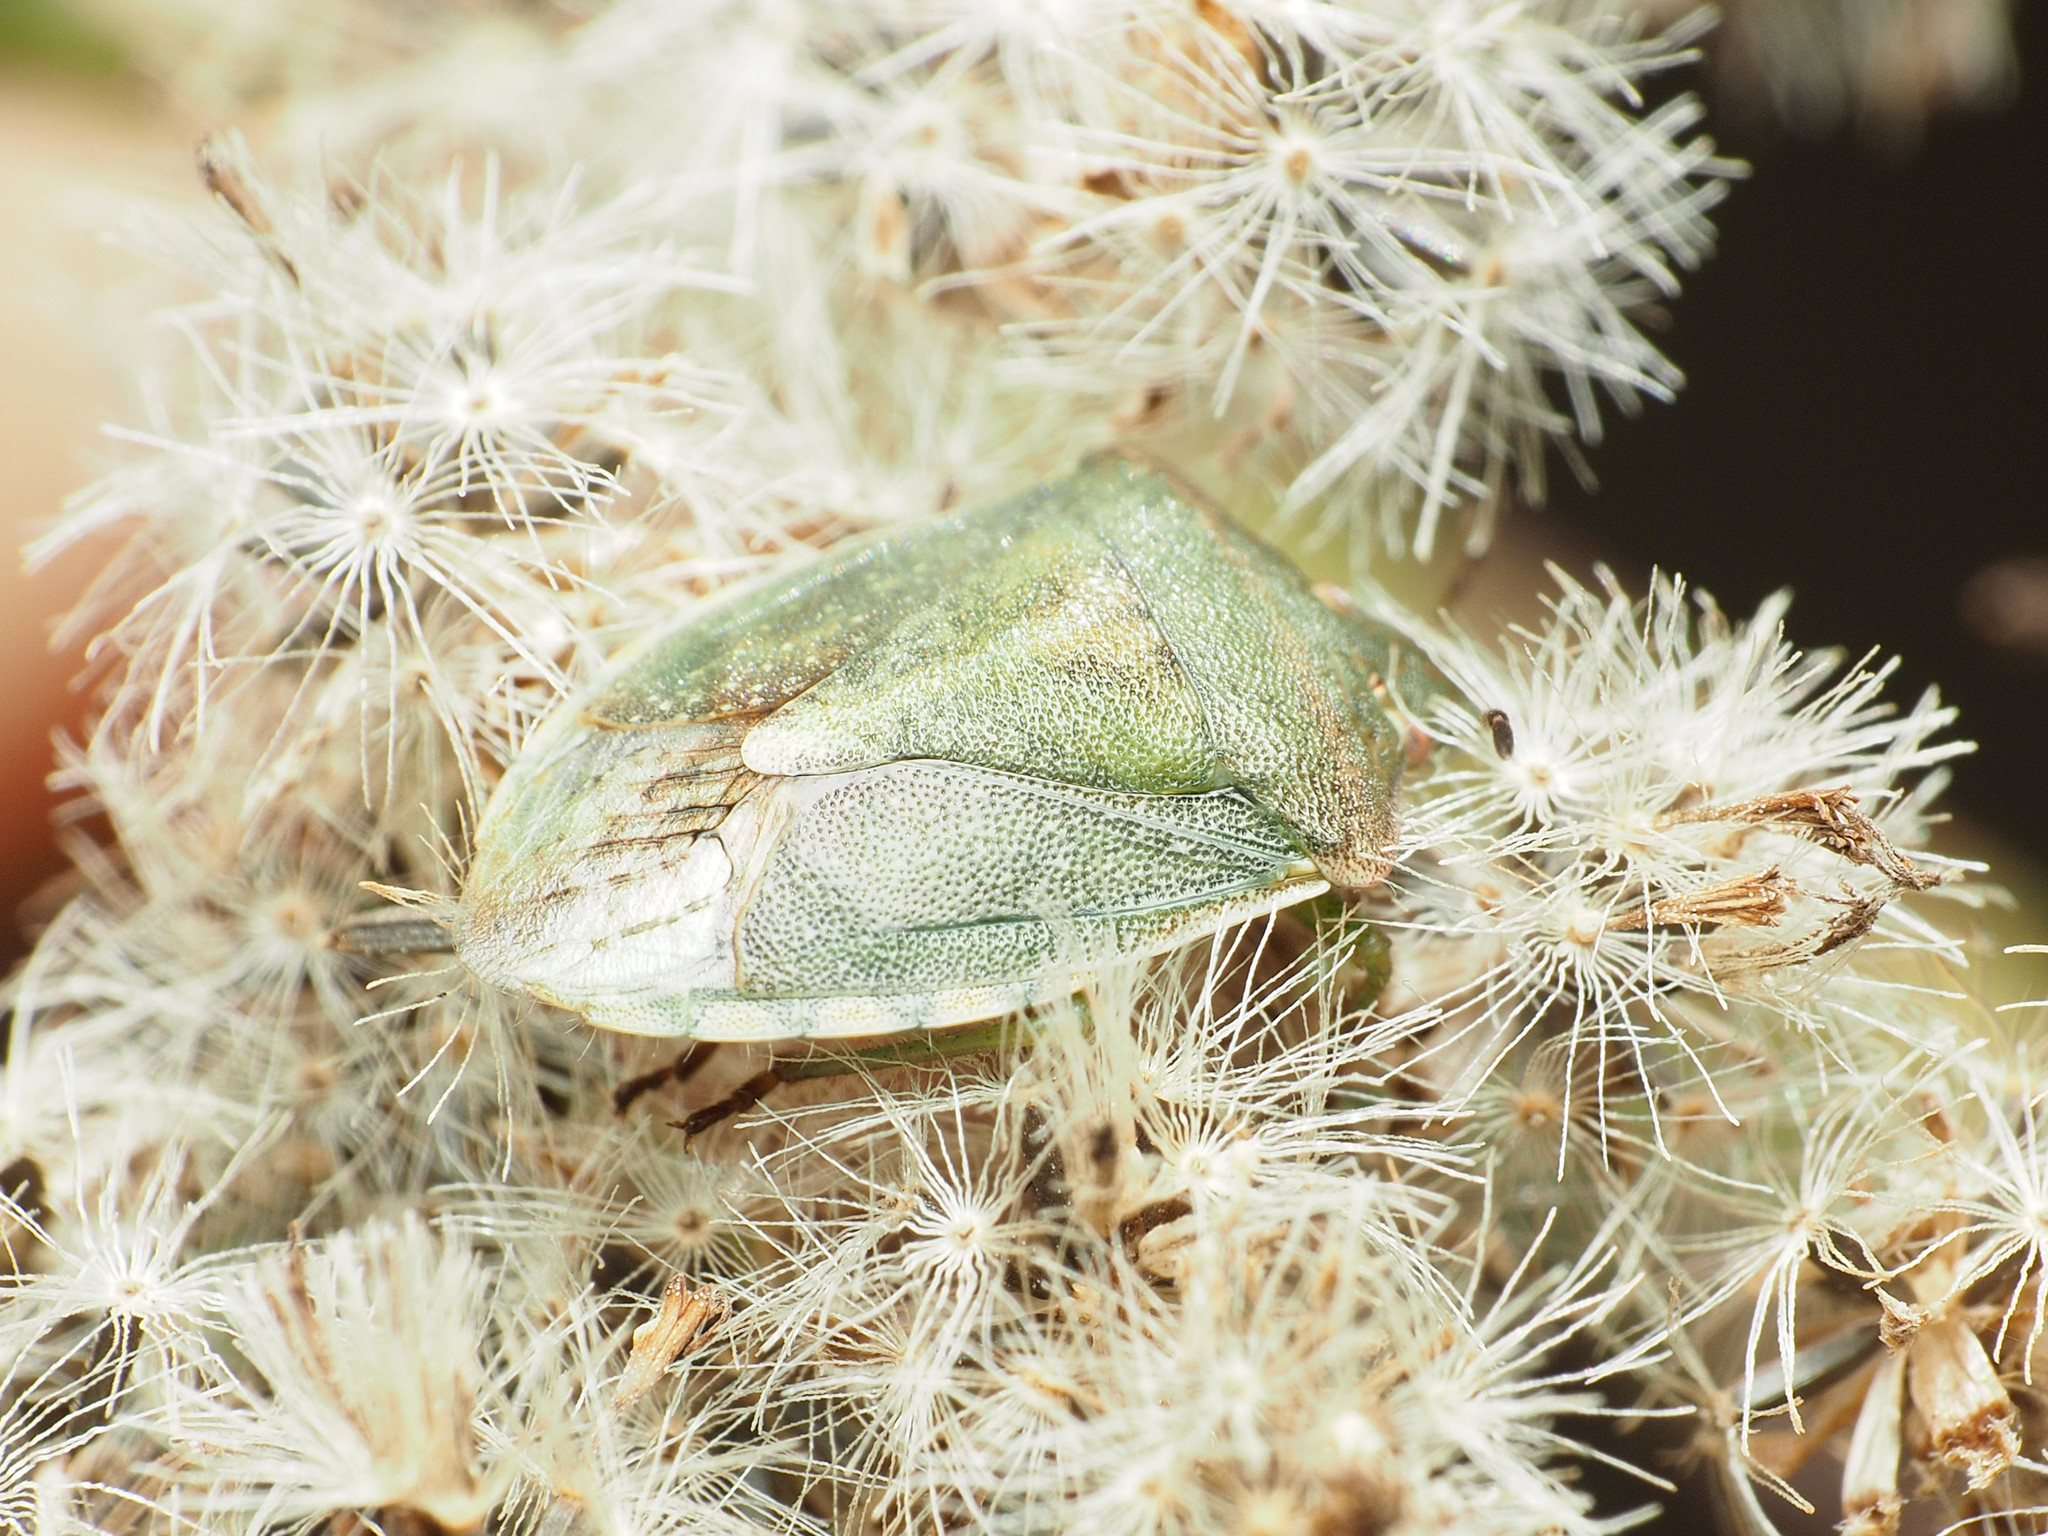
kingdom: Animalia
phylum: Arthropoda
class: Insecta
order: Hemiptera
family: Pentatomidae
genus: Thyanta
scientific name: Thyanta custator
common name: Stink bug
